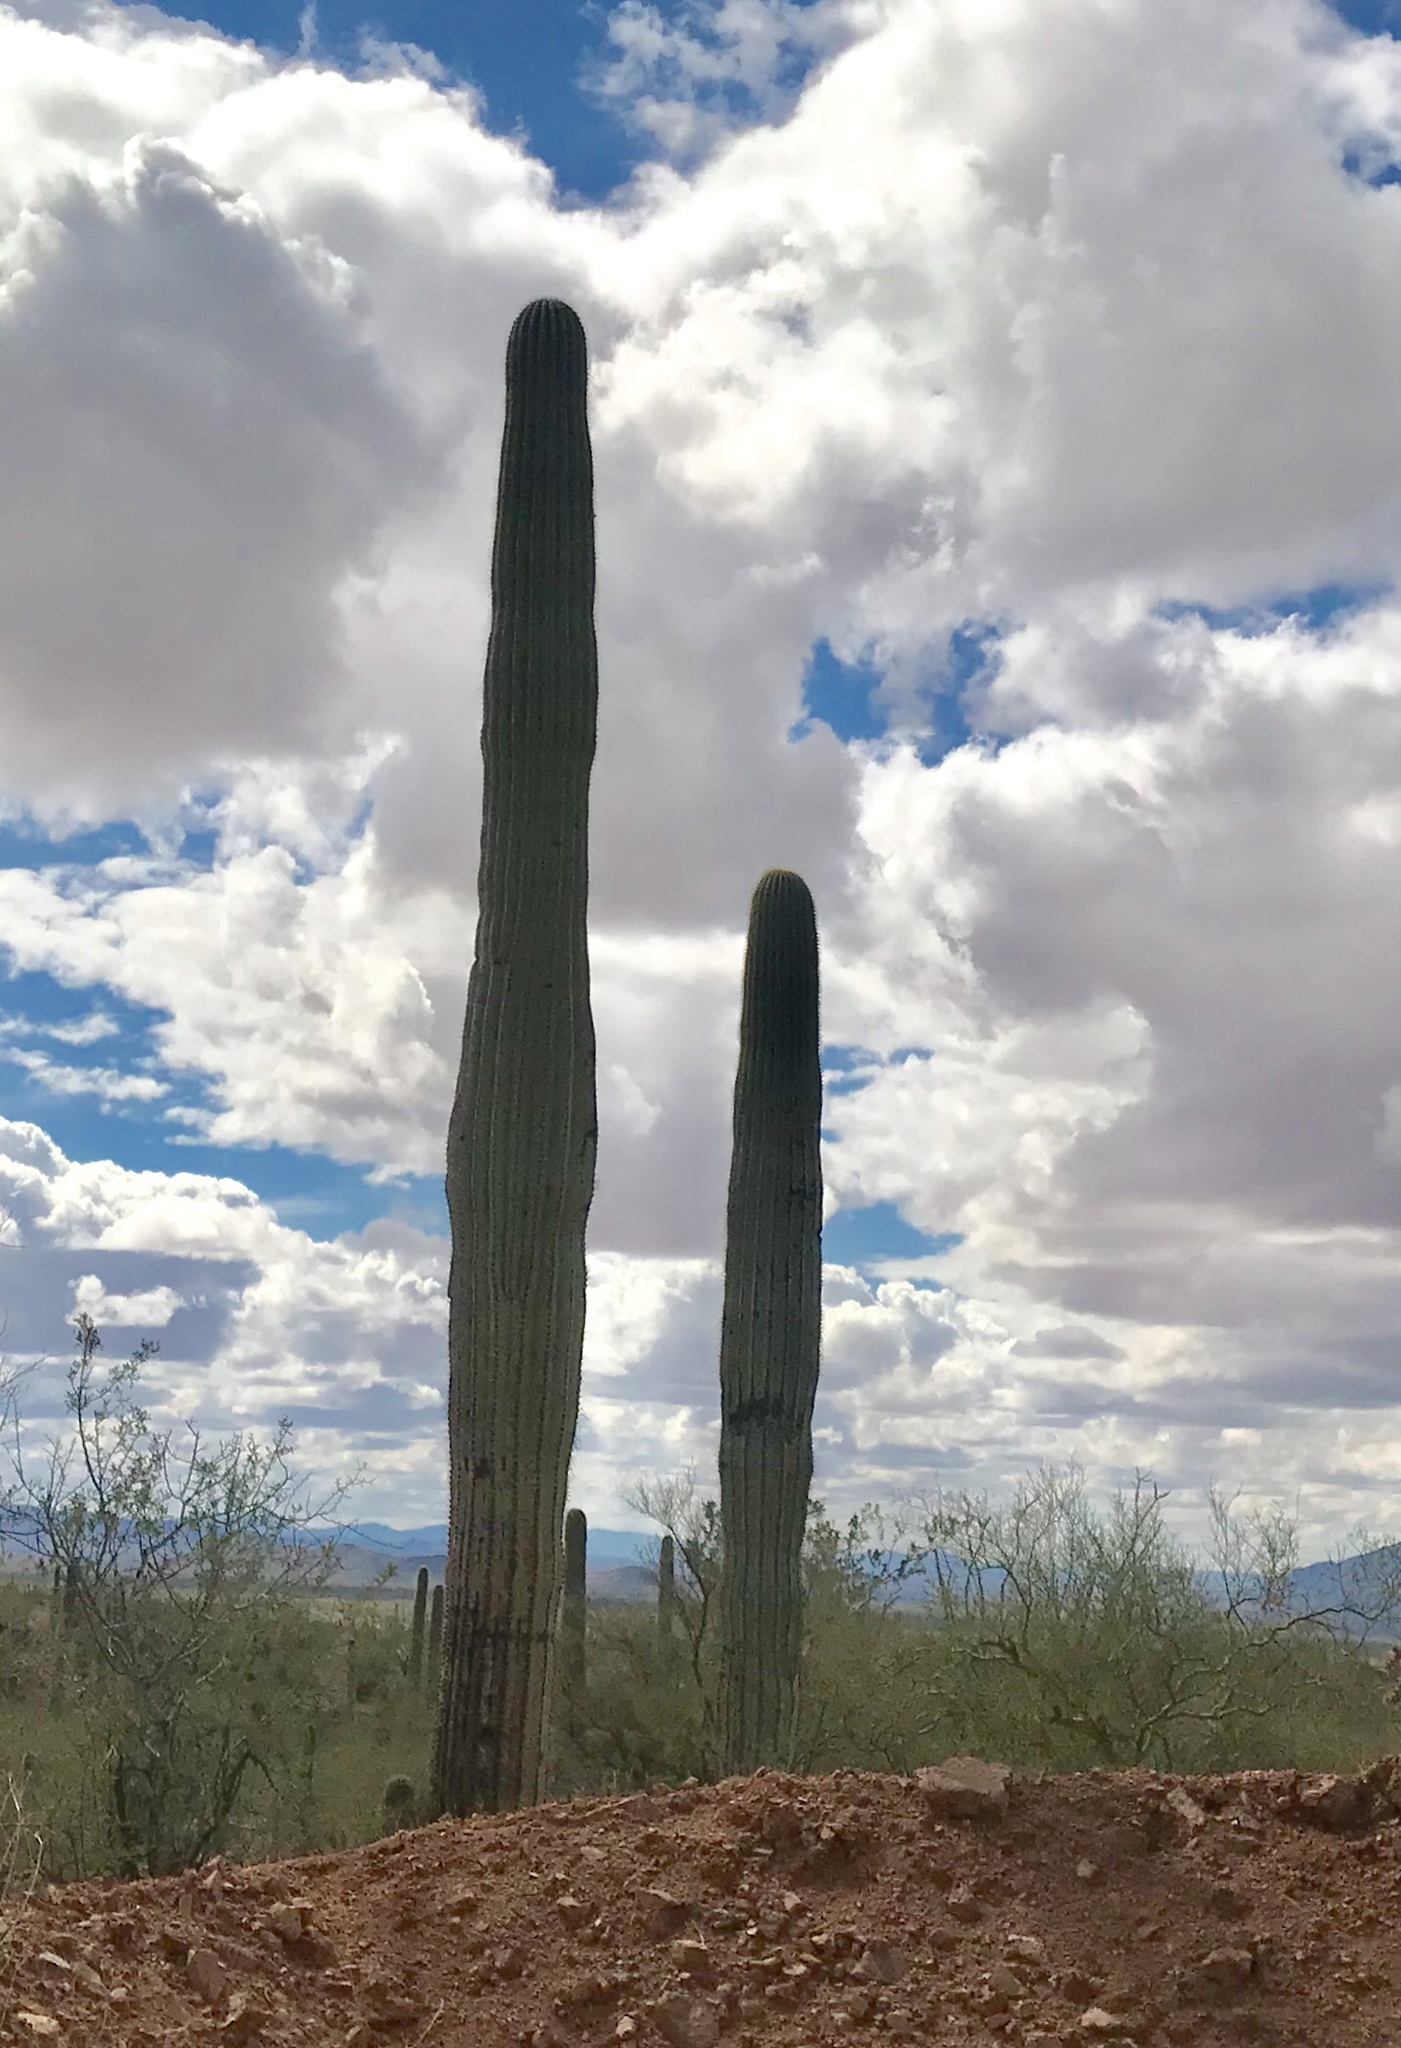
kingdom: Plantae
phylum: Tracheophyta
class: Magnoliopsida
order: Caryophyllales
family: Cactaceae
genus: Carnegiea
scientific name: Carnegiea gigantea
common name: Saguaro
